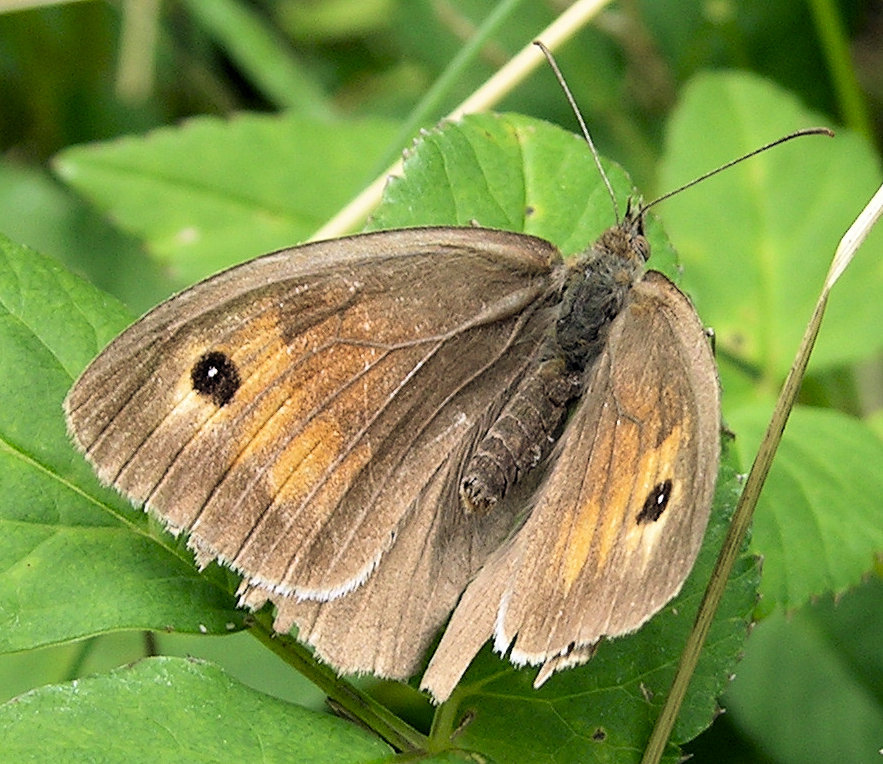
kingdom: Animalia
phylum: Arthropoda
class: Insecta
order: Lepidoptera
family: Nymphalidae
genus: Maniola
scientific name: Maniola jurtina
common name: Meadow brown
